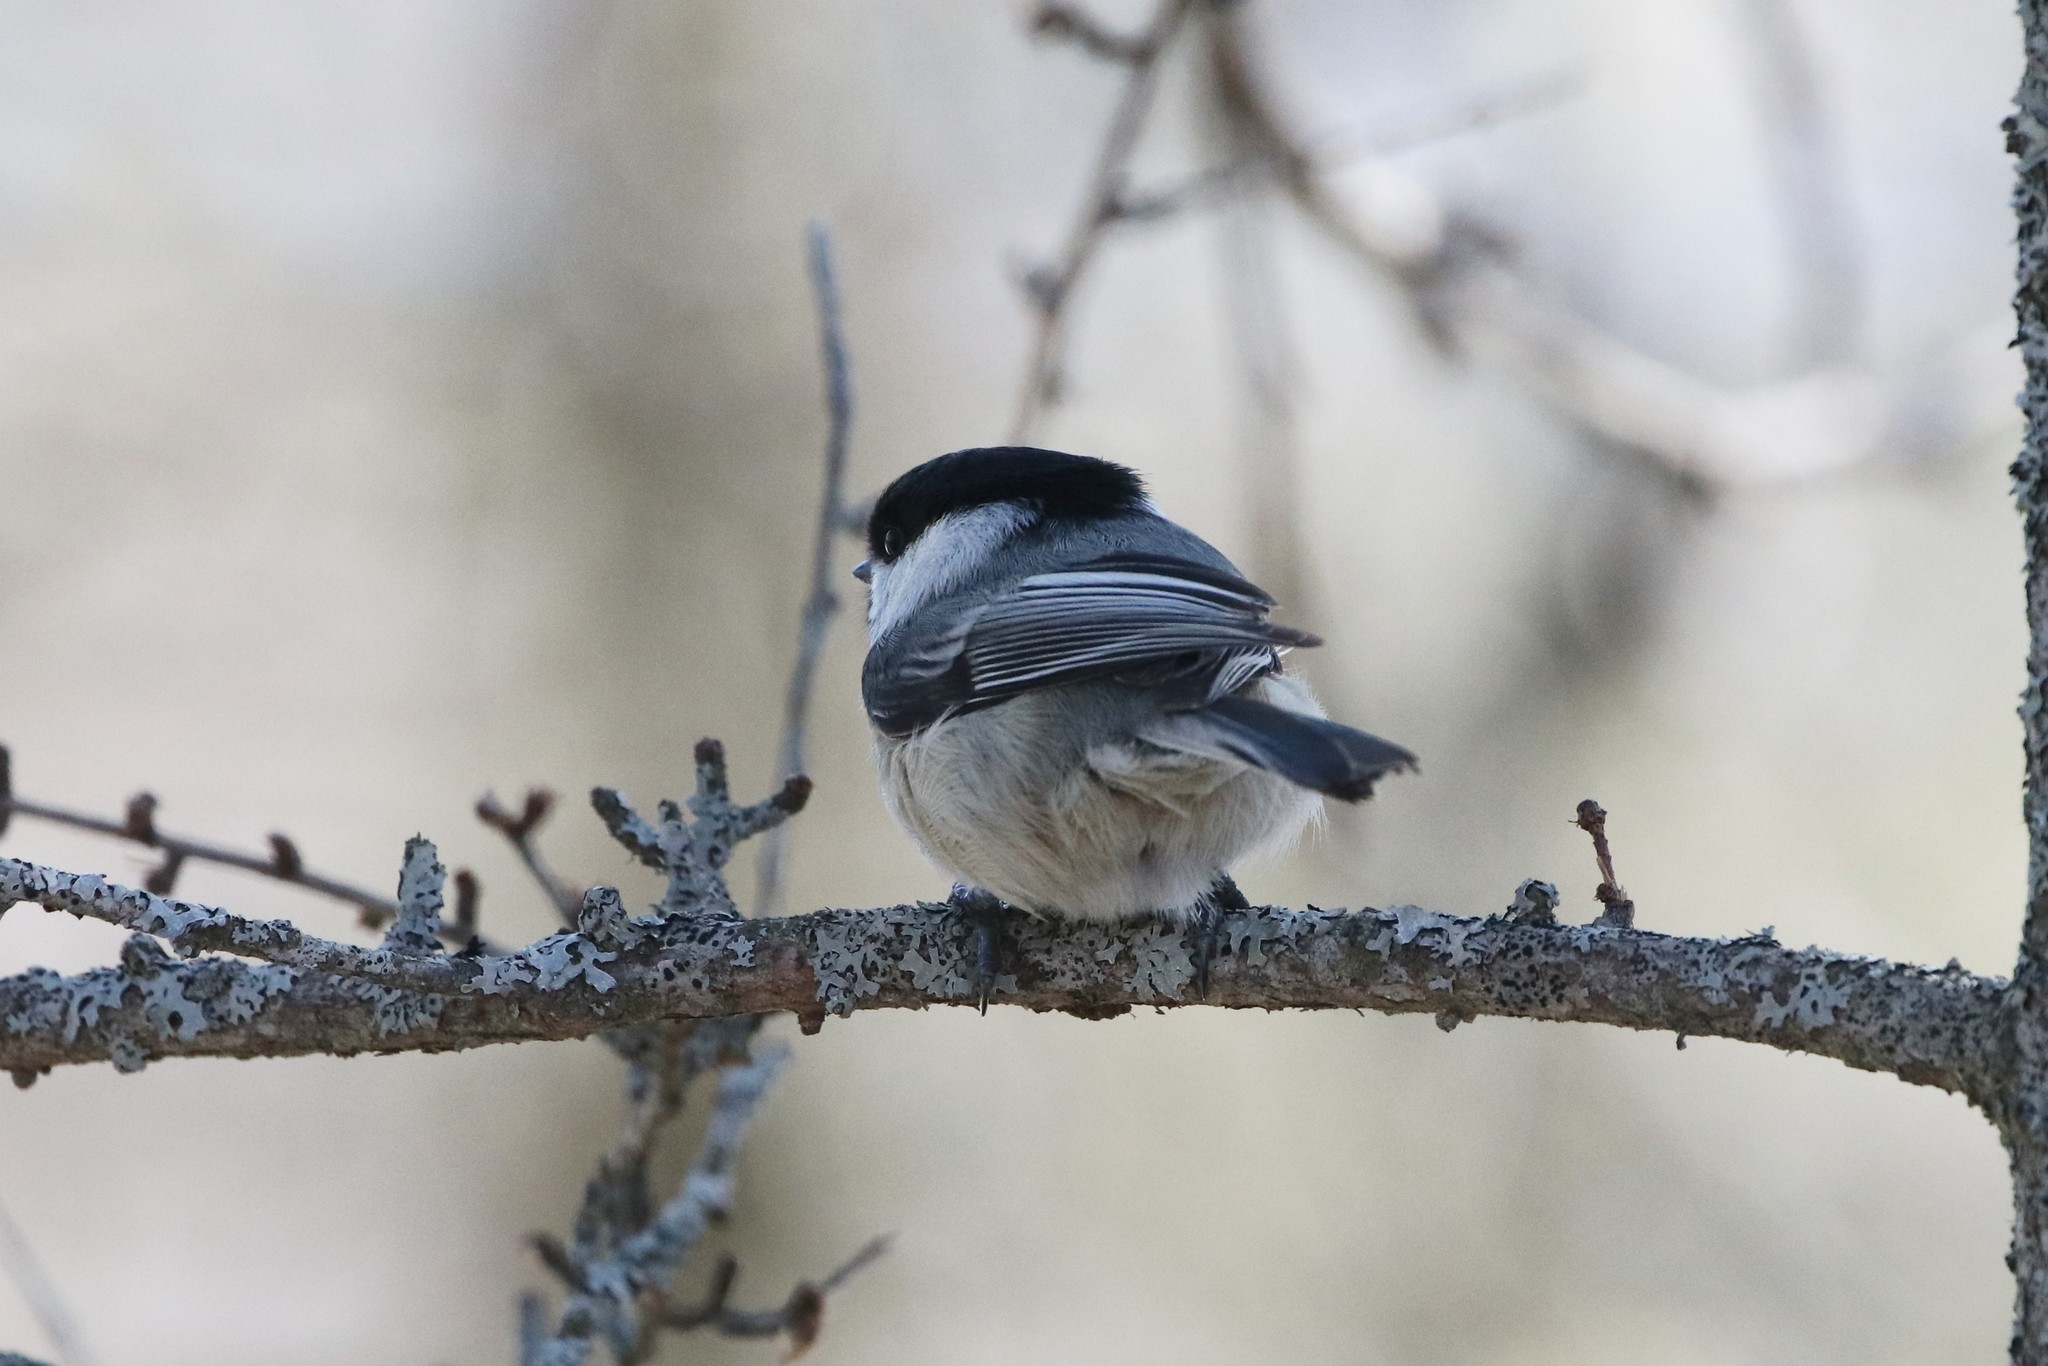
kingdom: Animalia
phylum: Chordata
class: Aves
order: Passeriformes
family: Paridae
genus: Poecile
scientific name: Poecile atricapillus
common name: Black-capped chickadee
